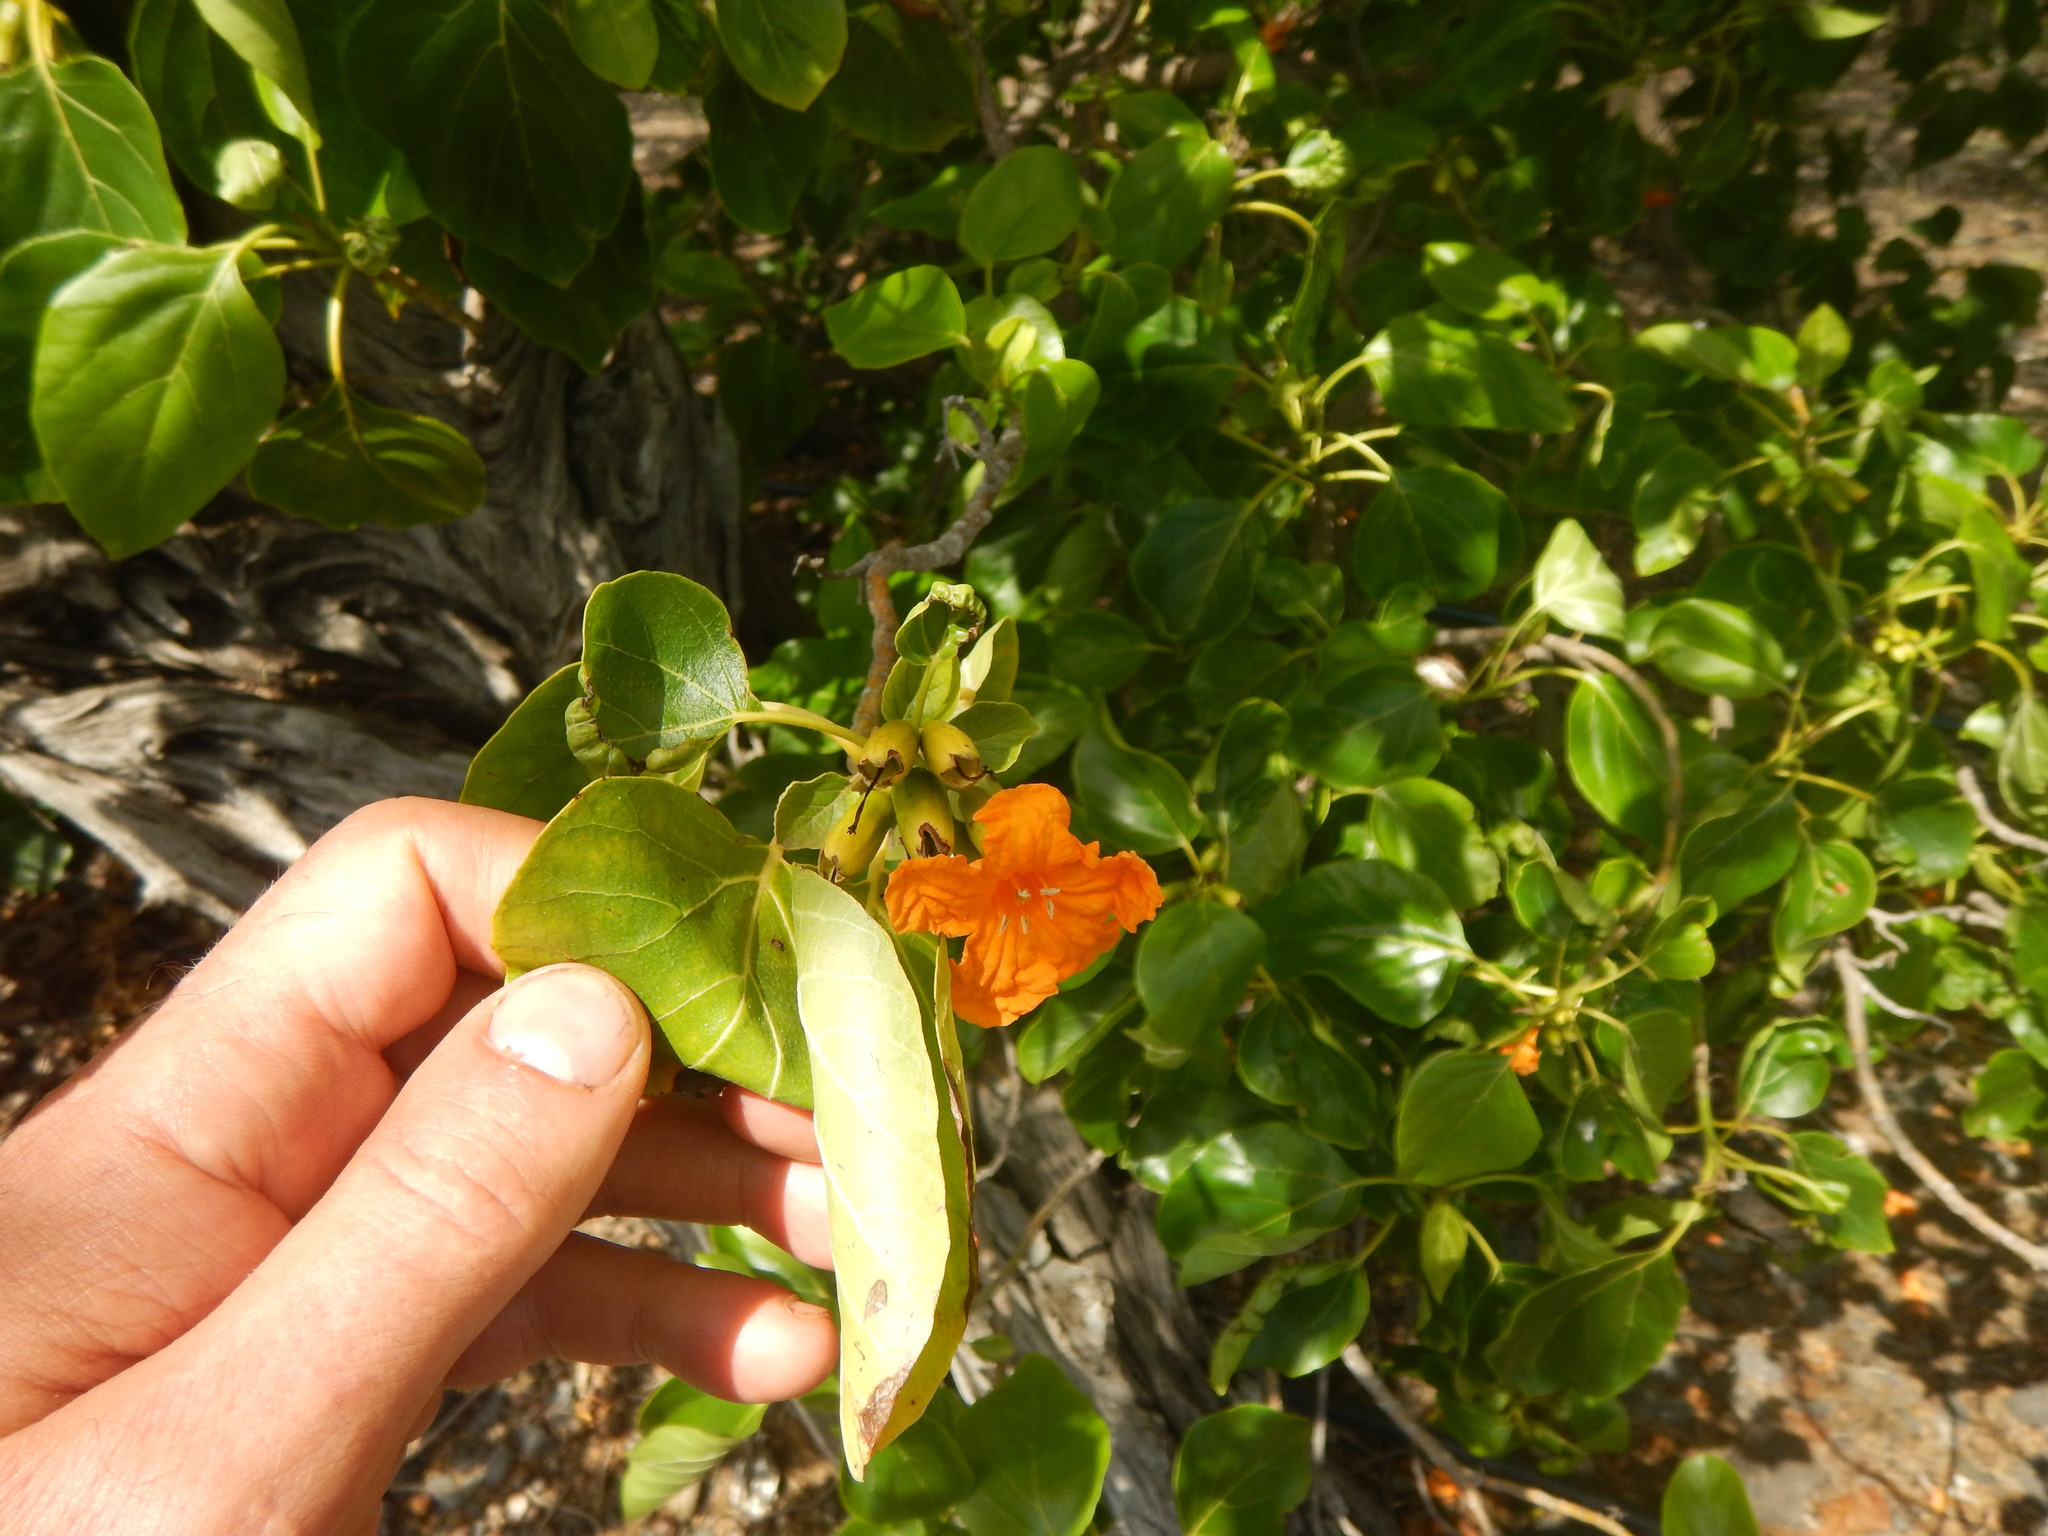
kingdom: Plantae
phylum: Tracheophyta
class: Magnoliopsida
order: Boraginales
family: Cordiaceae
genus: Cordia
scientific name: Cordia subcordata
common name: Mareer
